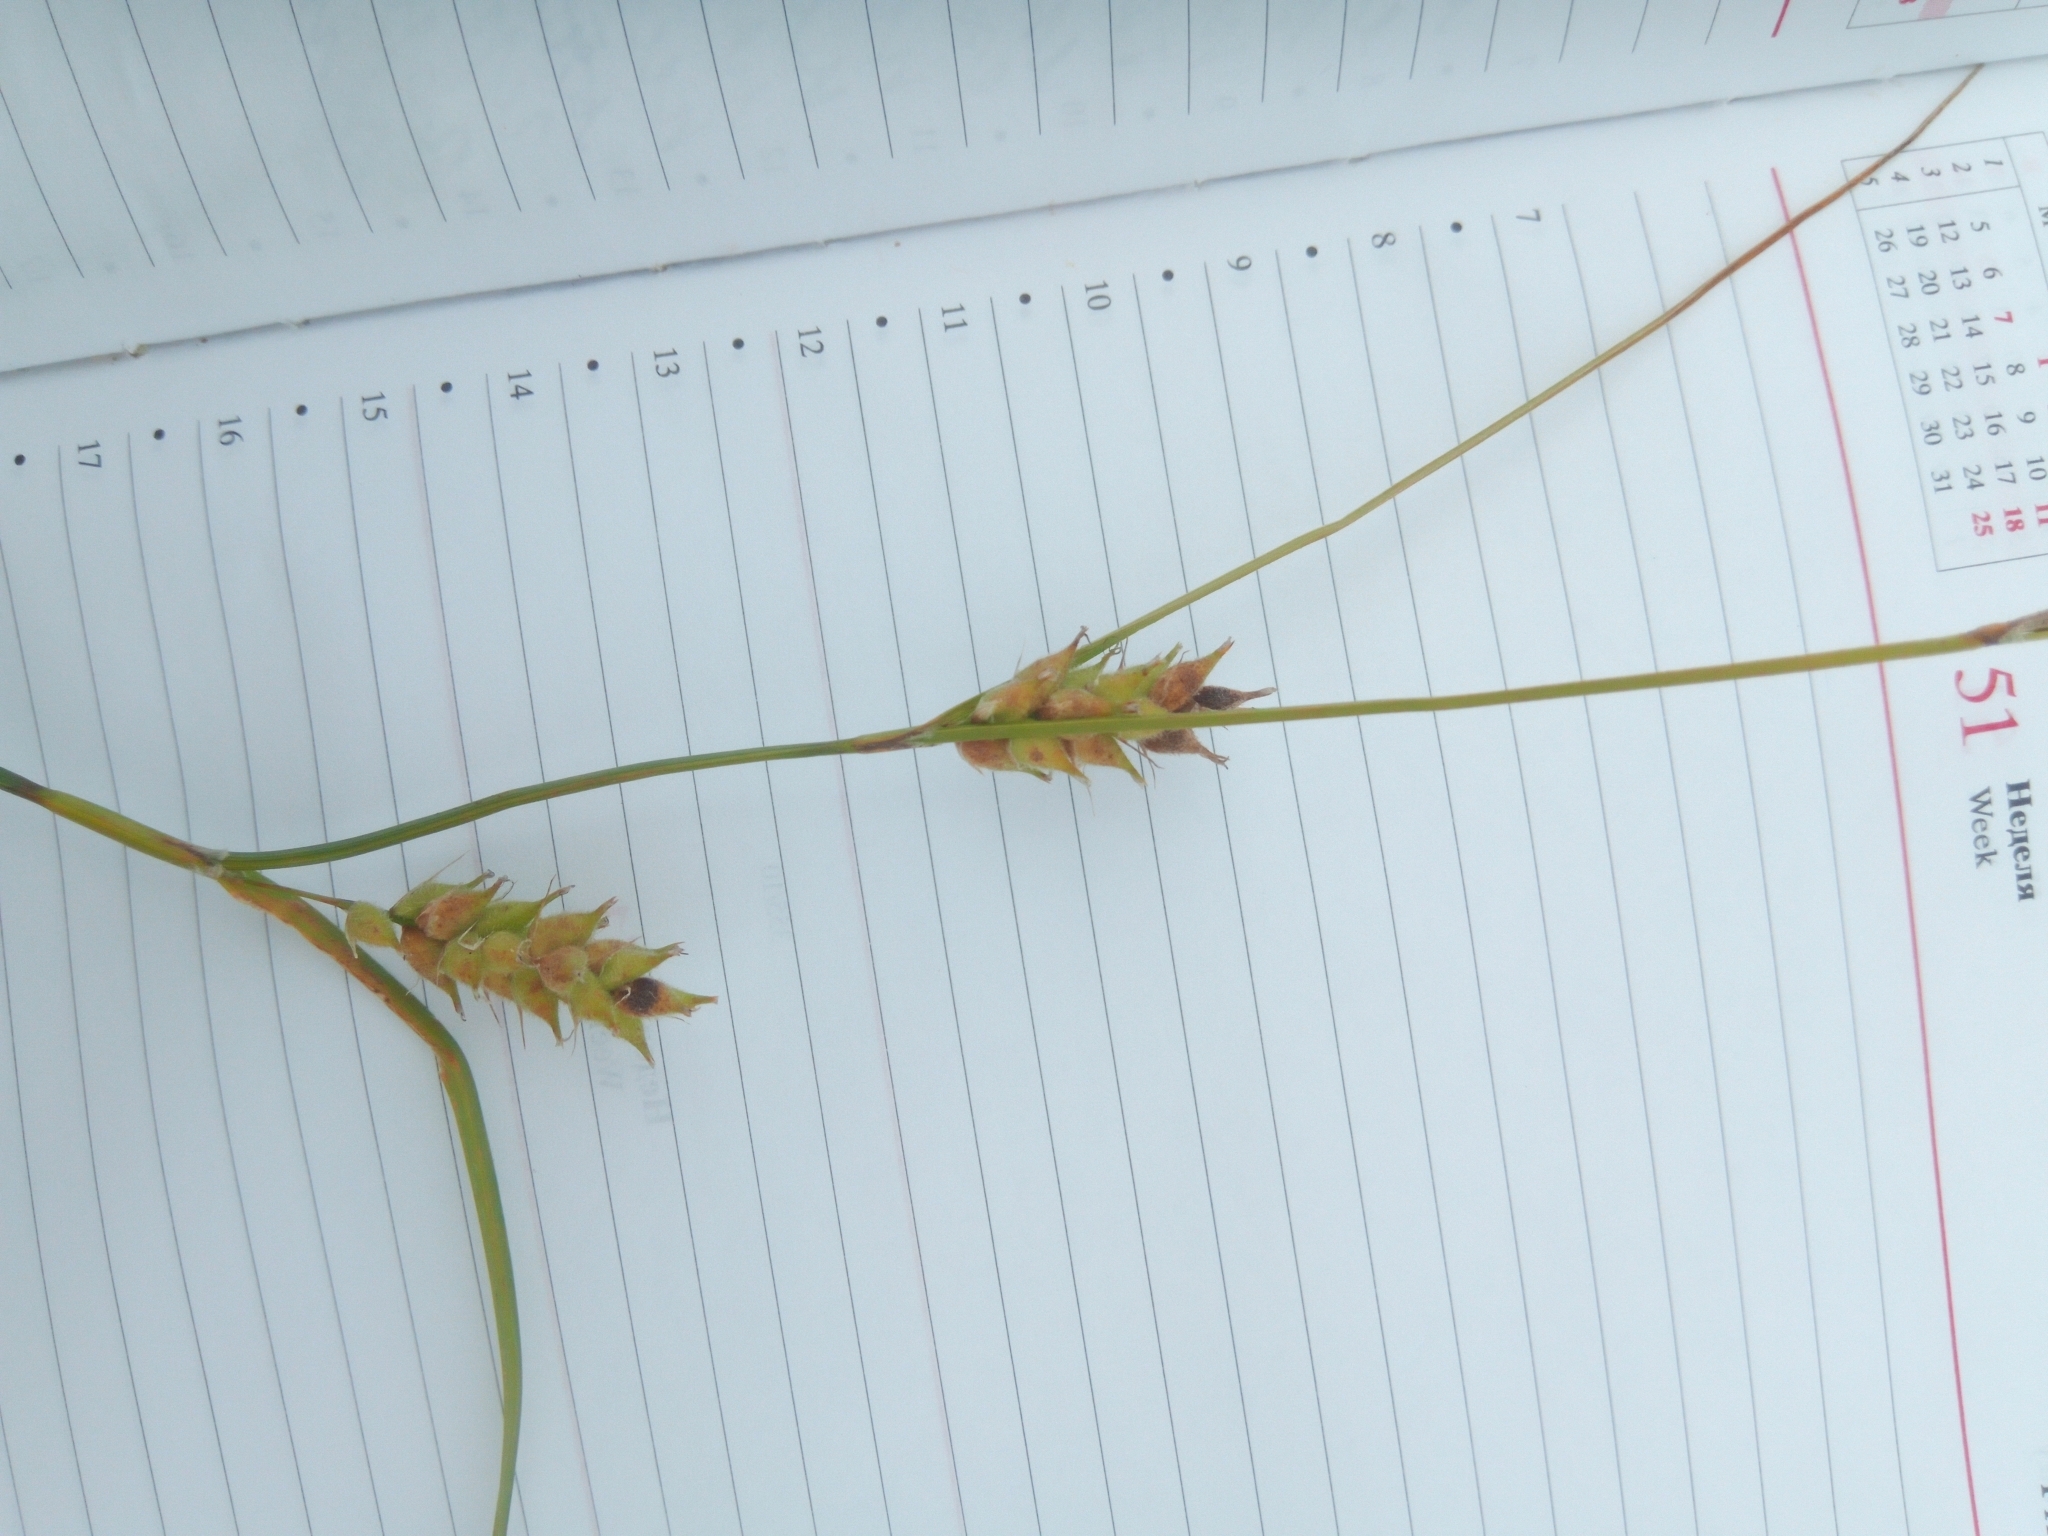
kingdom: Plantae
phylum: Tracheophyta
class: Liliopsida
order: Poales
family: Cyperaceae
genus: Carex
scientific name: Carex hirta
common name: Hairy sedge
